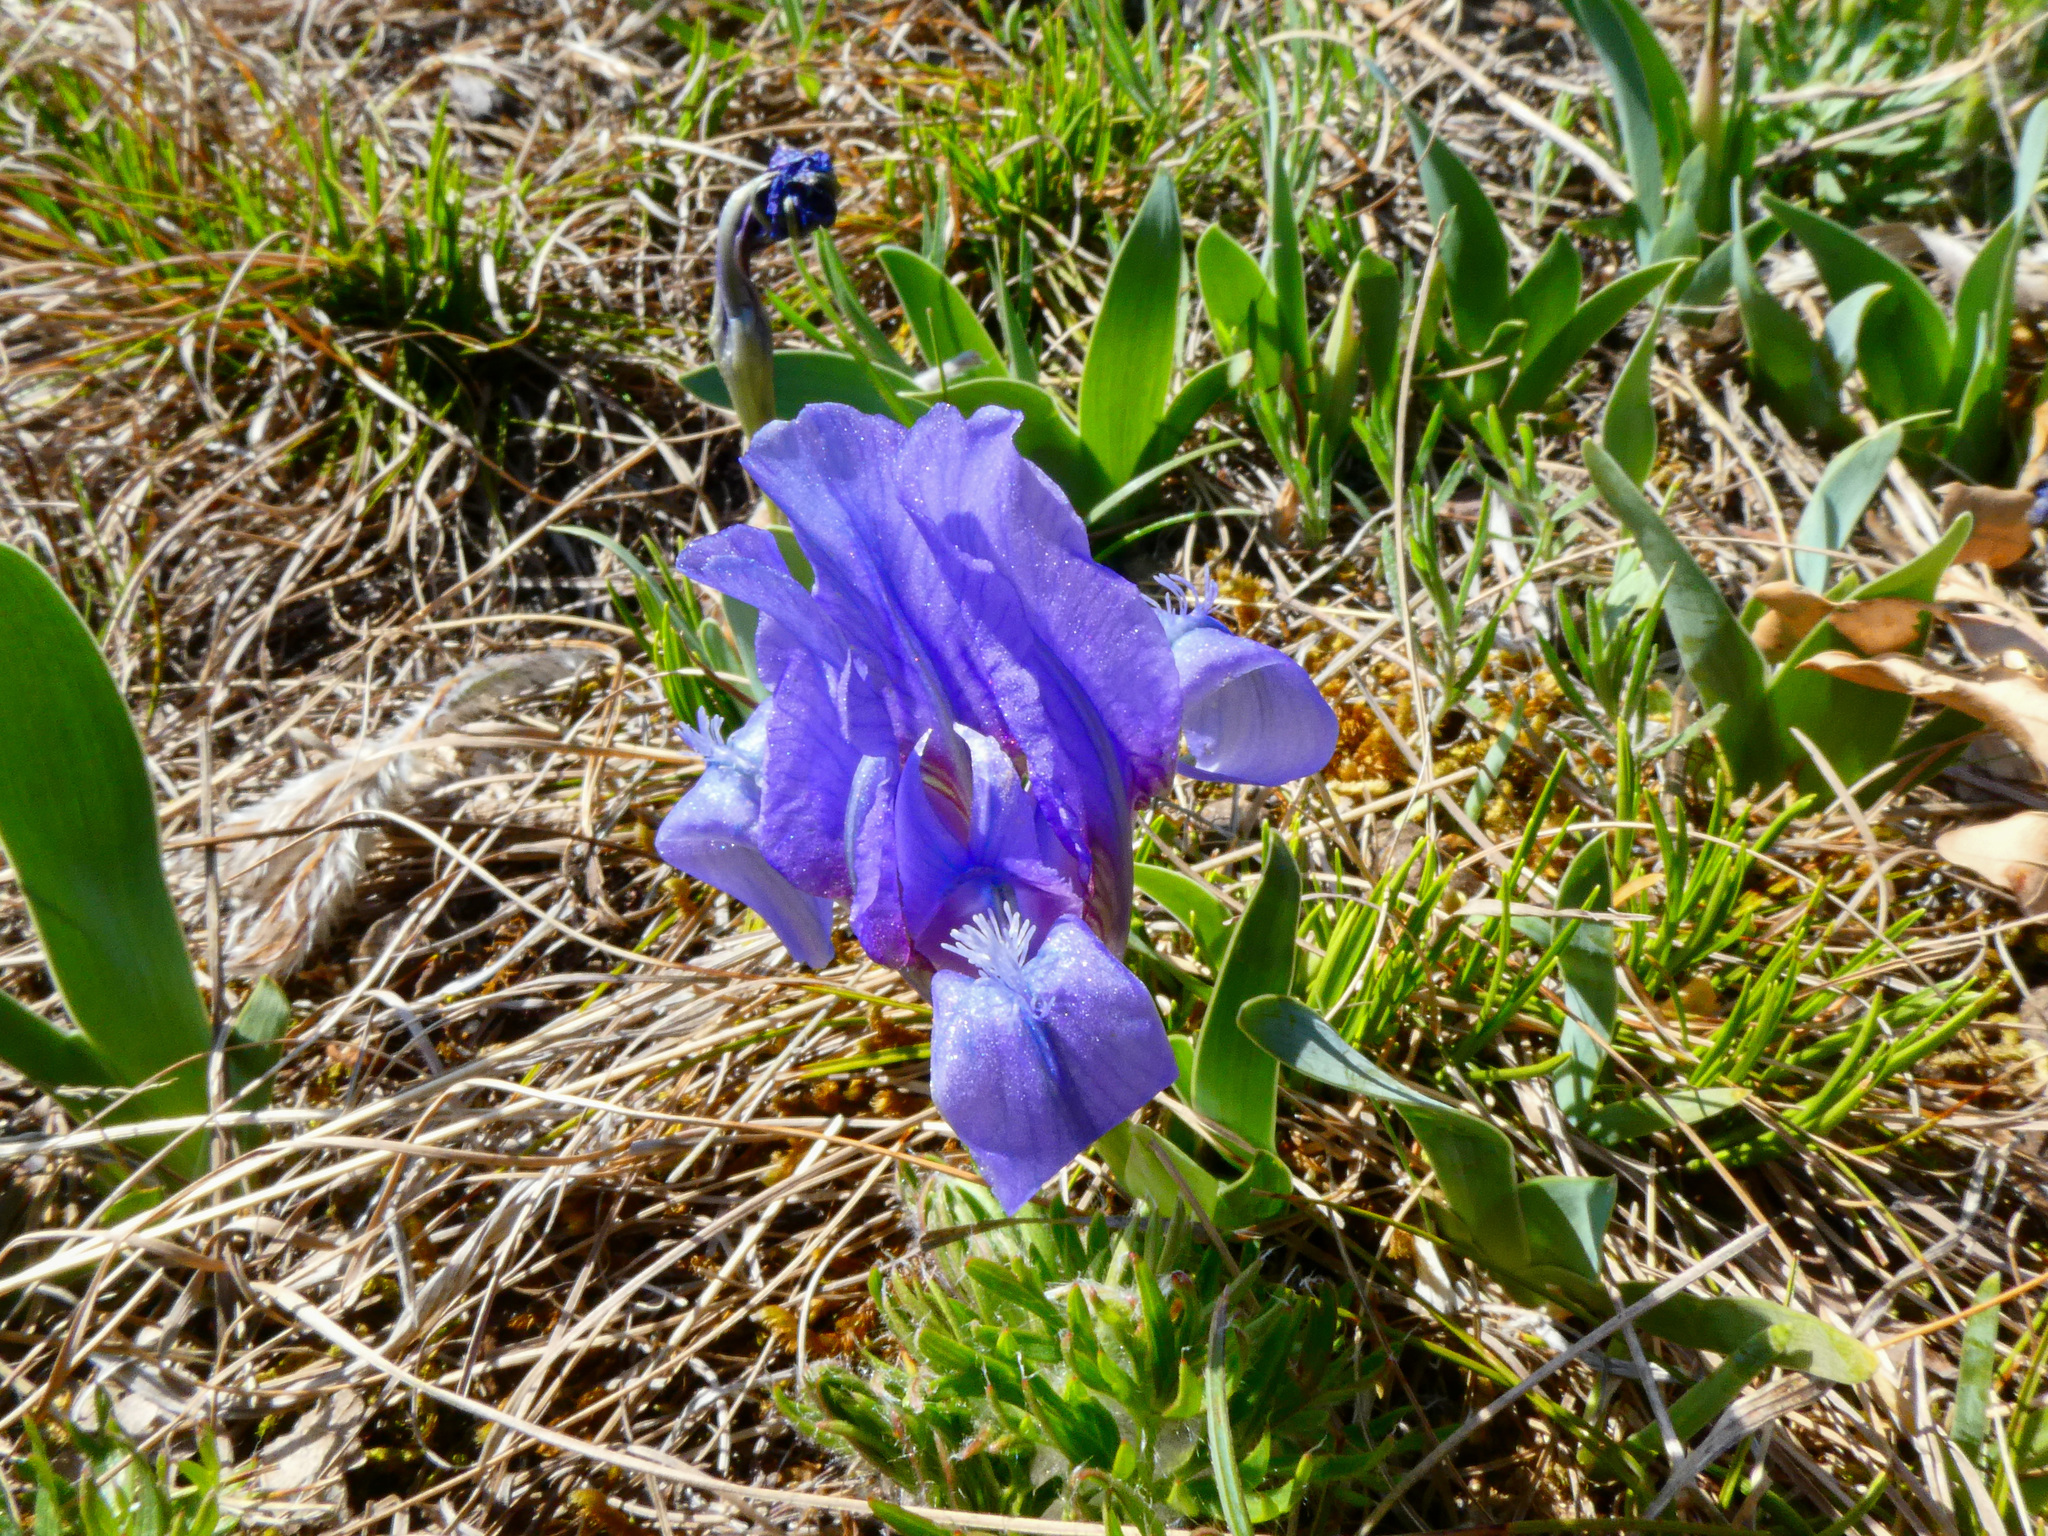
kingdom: Plantae
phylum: Tracheophyta
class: Liliopsida
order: Asparagales
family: Iridaceae
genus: Iris
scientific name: Iris pumila
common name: Dwarf iris
